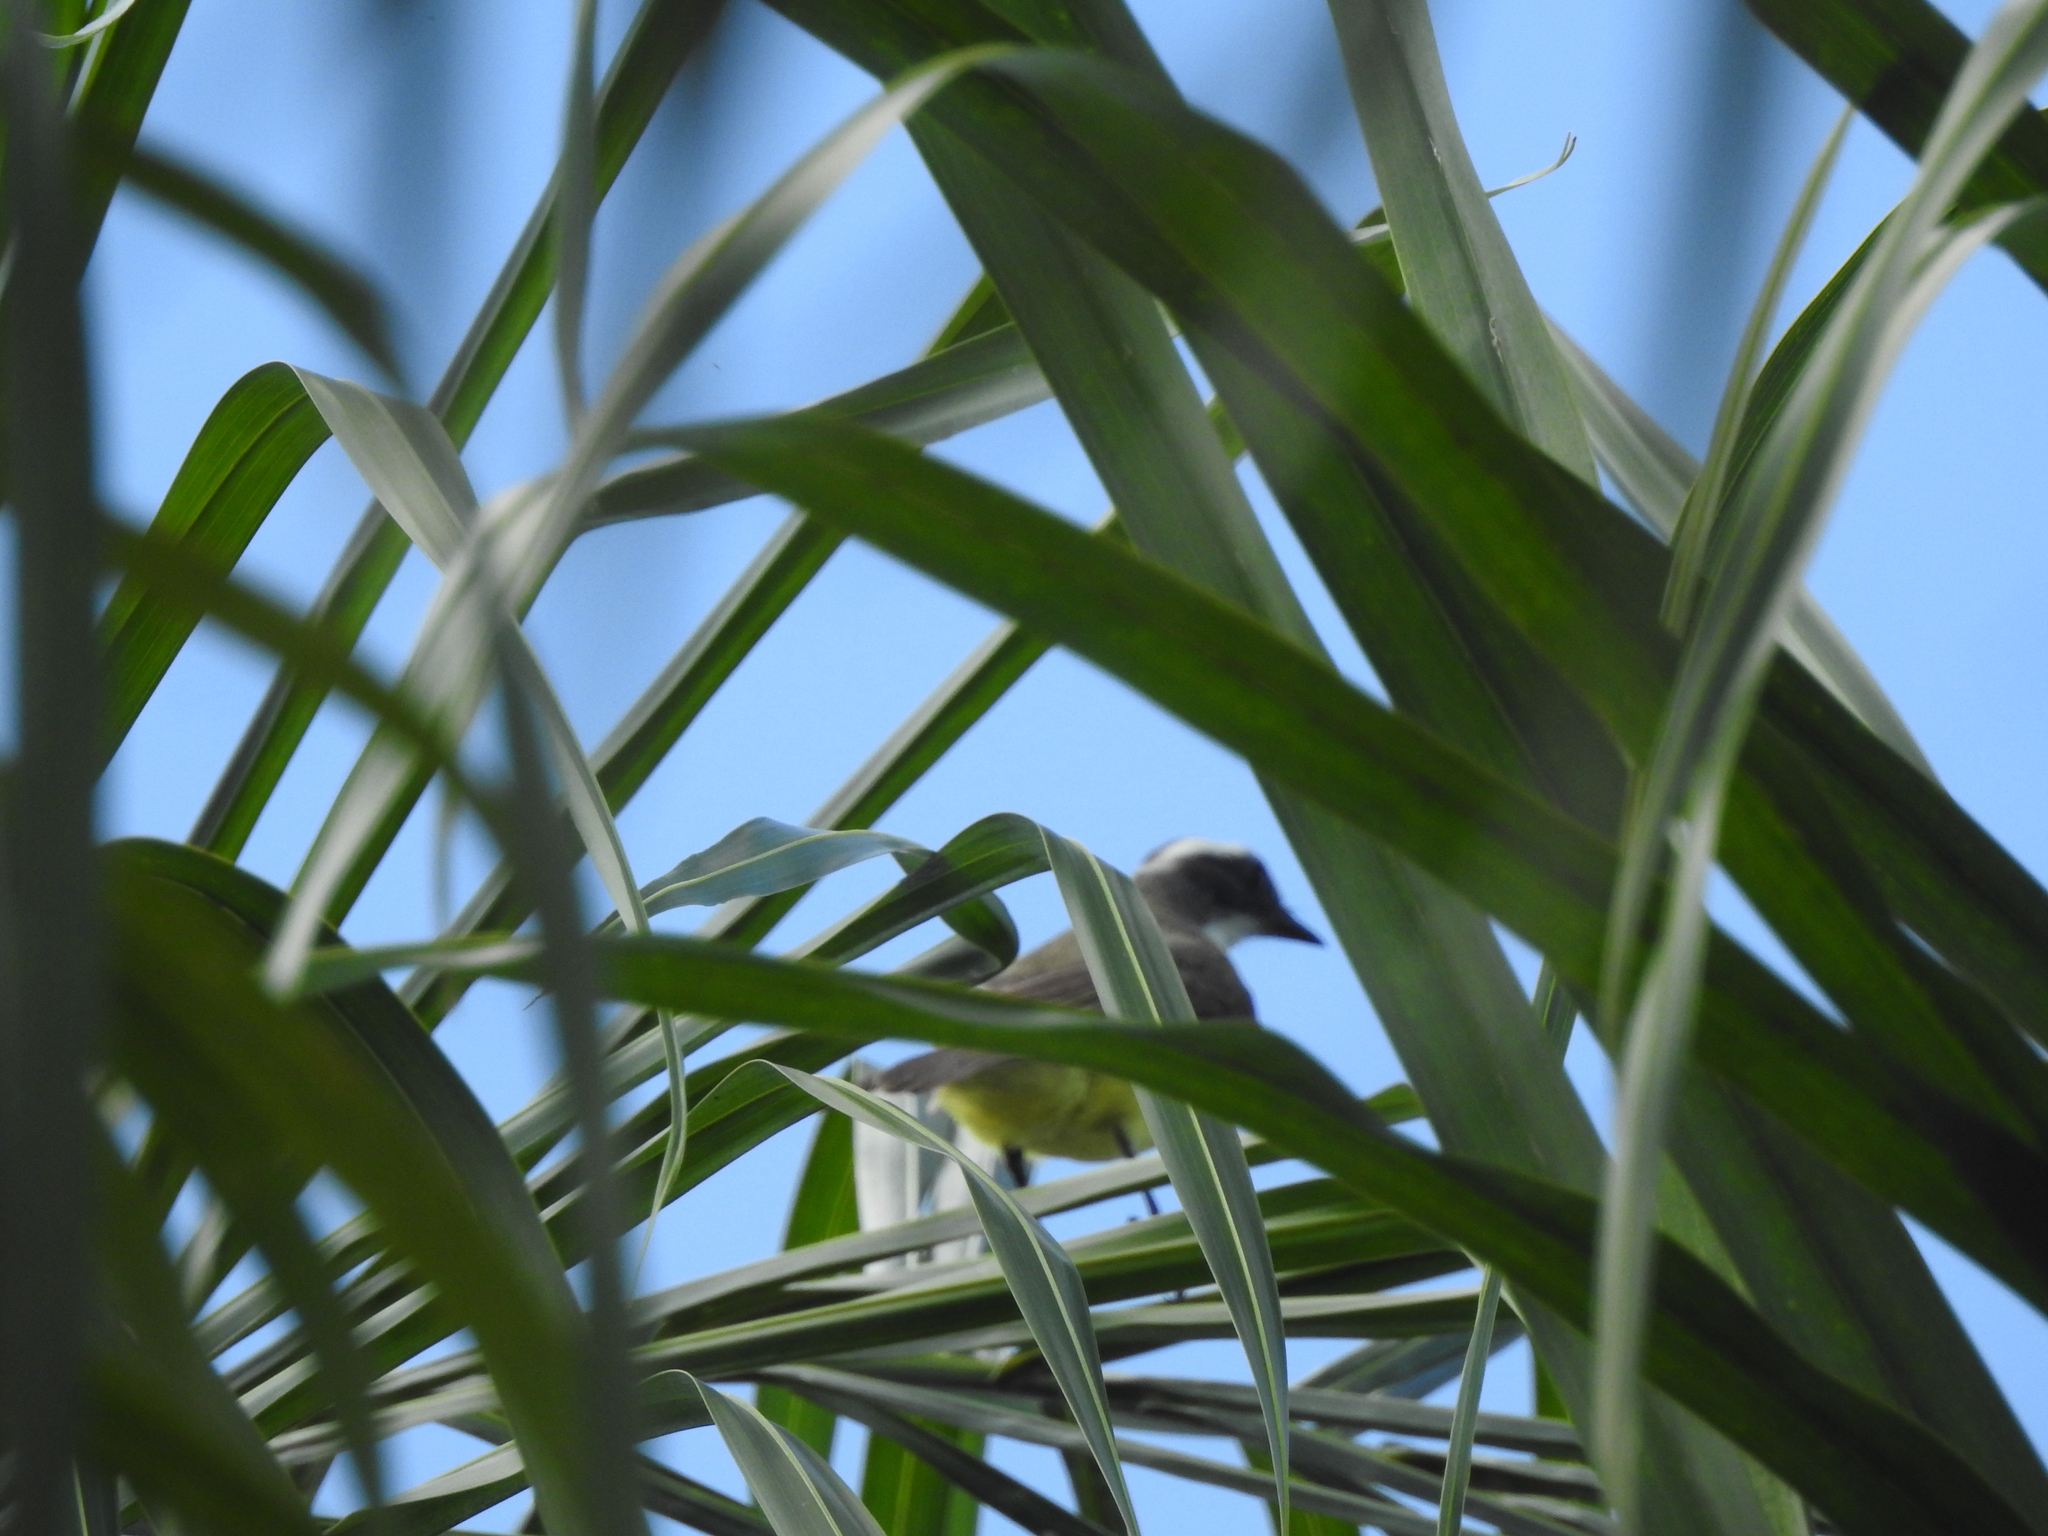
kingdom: Animalia
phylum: Chordata
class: Aves
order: Passeriformes
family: Tyrannidae
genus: Myiozetetes
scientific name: Myiozetetes similis
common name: Social flycatcher
